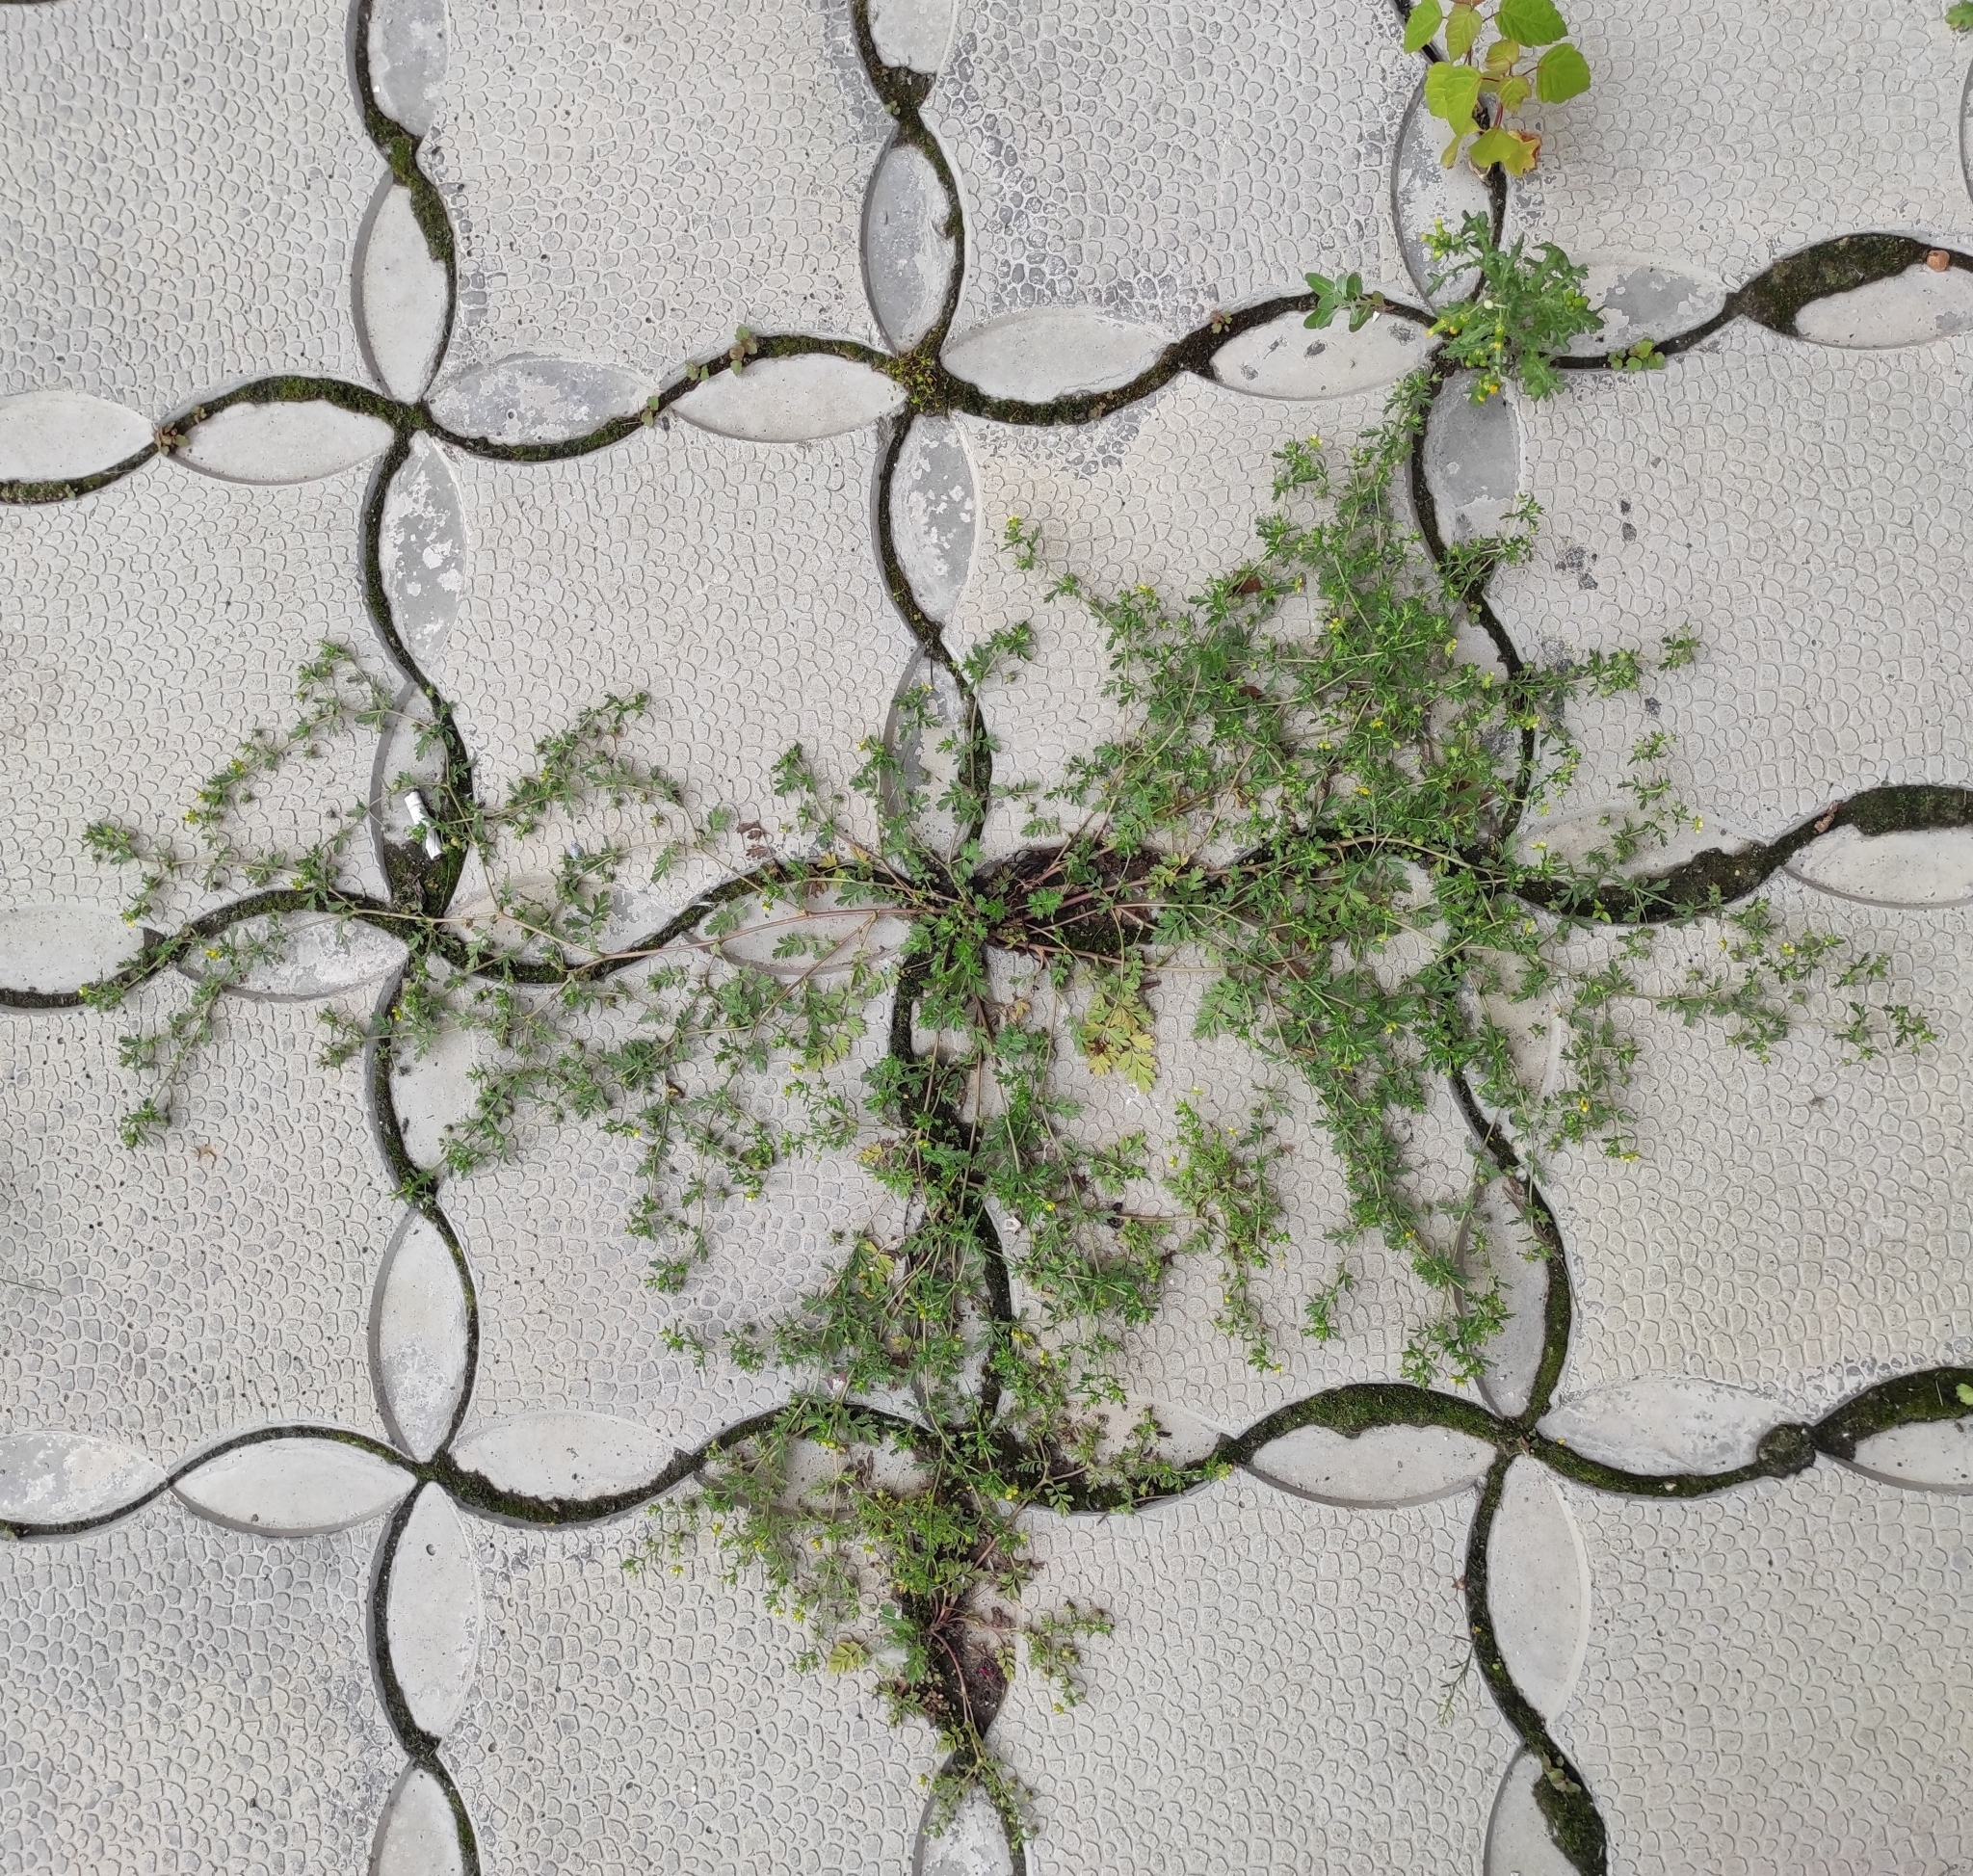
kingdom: Plantae
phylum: Tracheophyta
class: Magnoliopsida
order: Rosales
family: Rosaceae
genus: Potentilla
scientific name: Potentilla supina
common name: Prostrate cinquefoil
